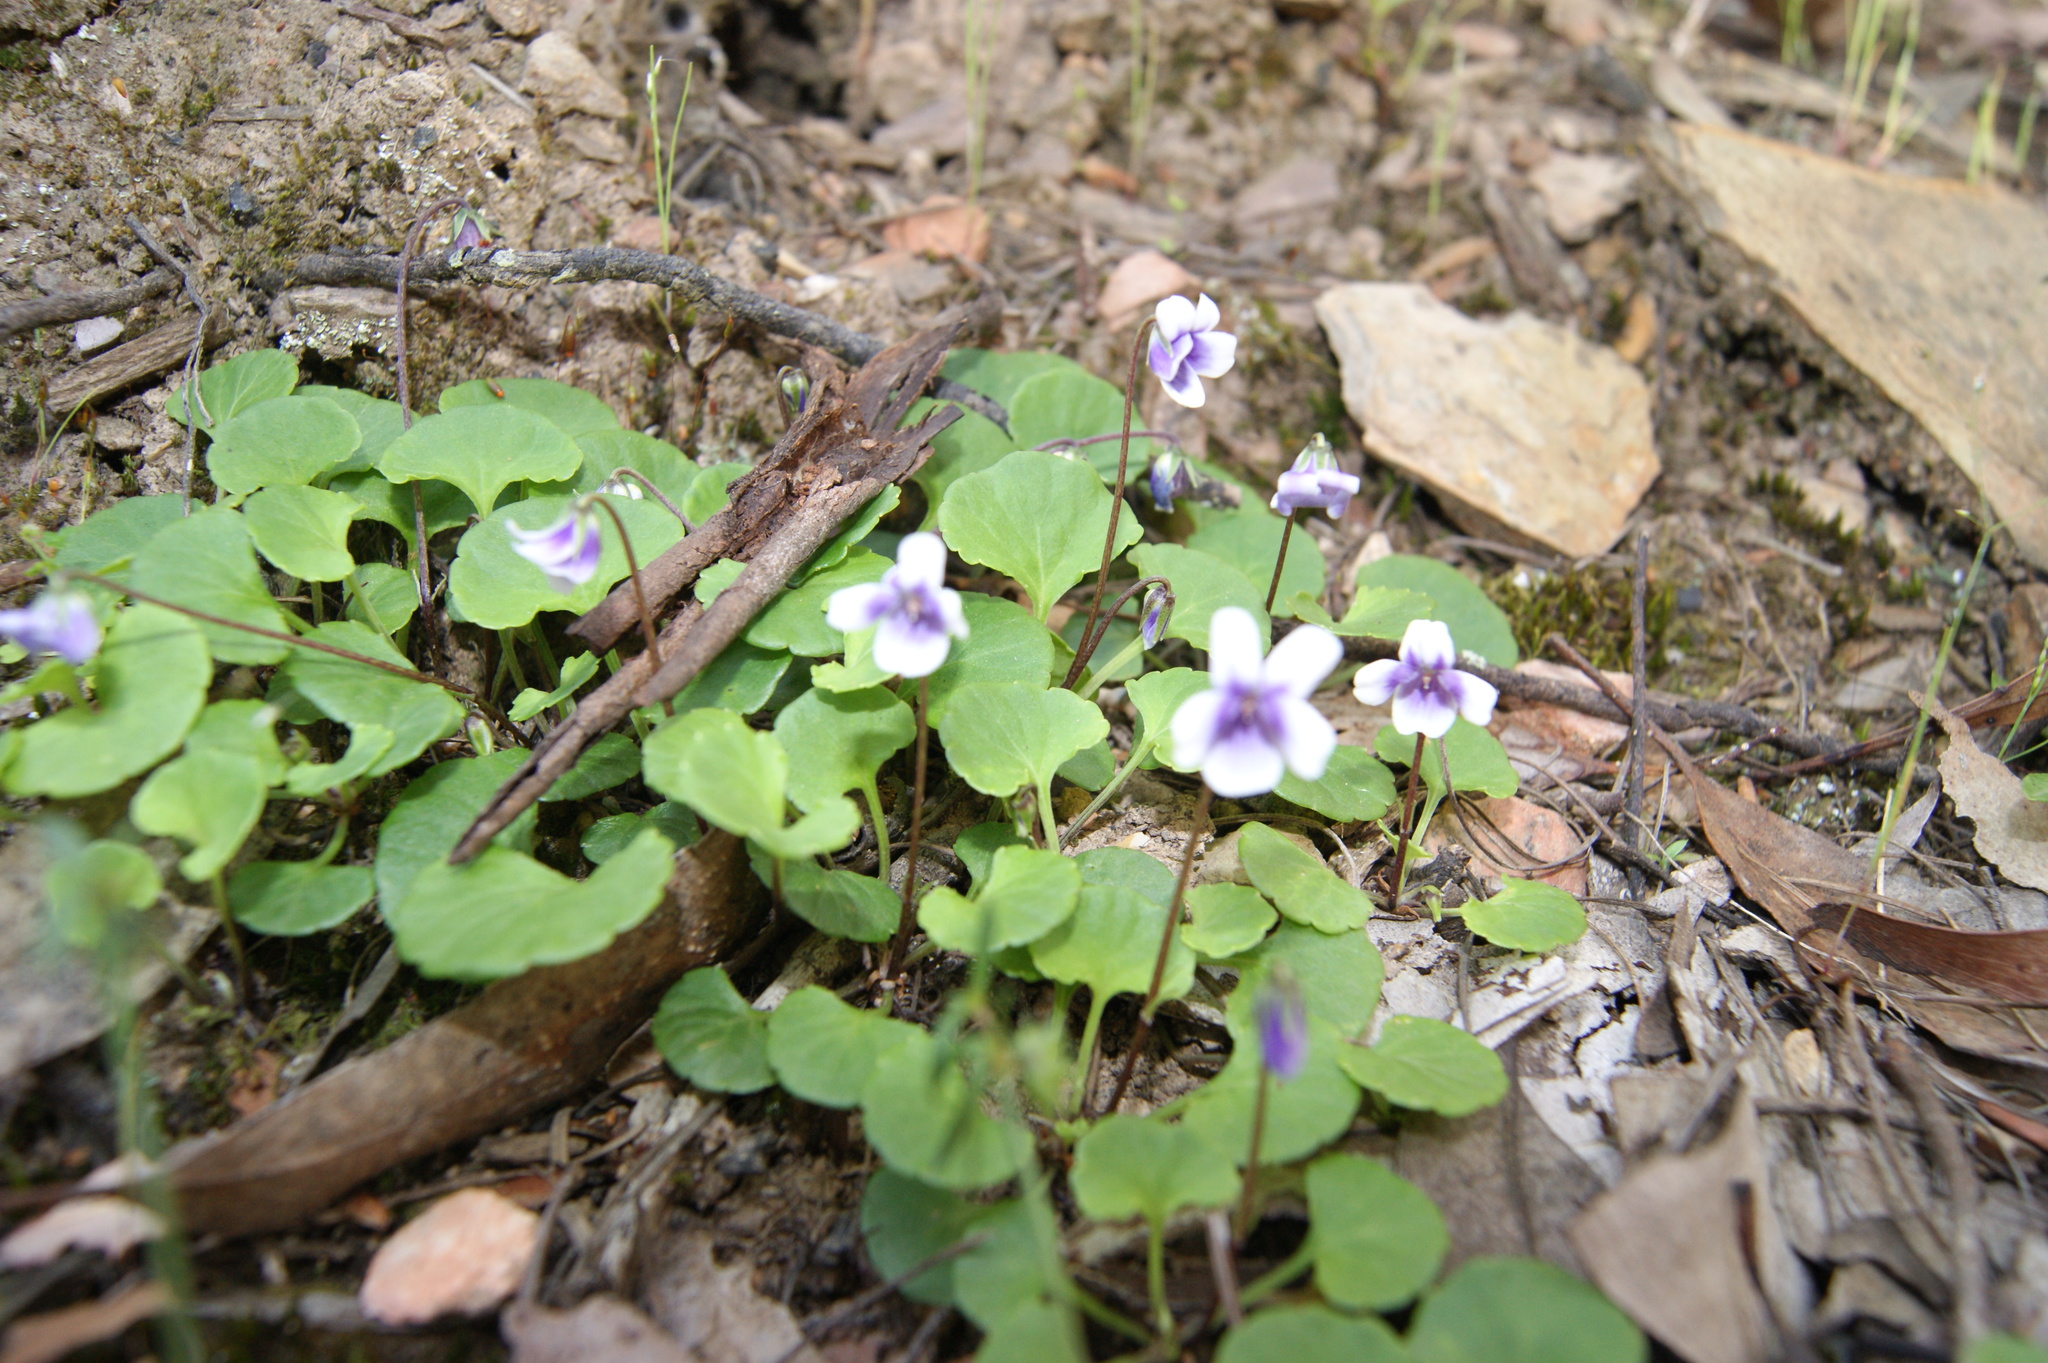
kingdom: Plantae
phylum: Tracheophyta
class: Magnoliopsida
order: Malpighiales
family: Violaceae
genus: Viola
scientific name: Viola hederacea
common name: Australian violet
